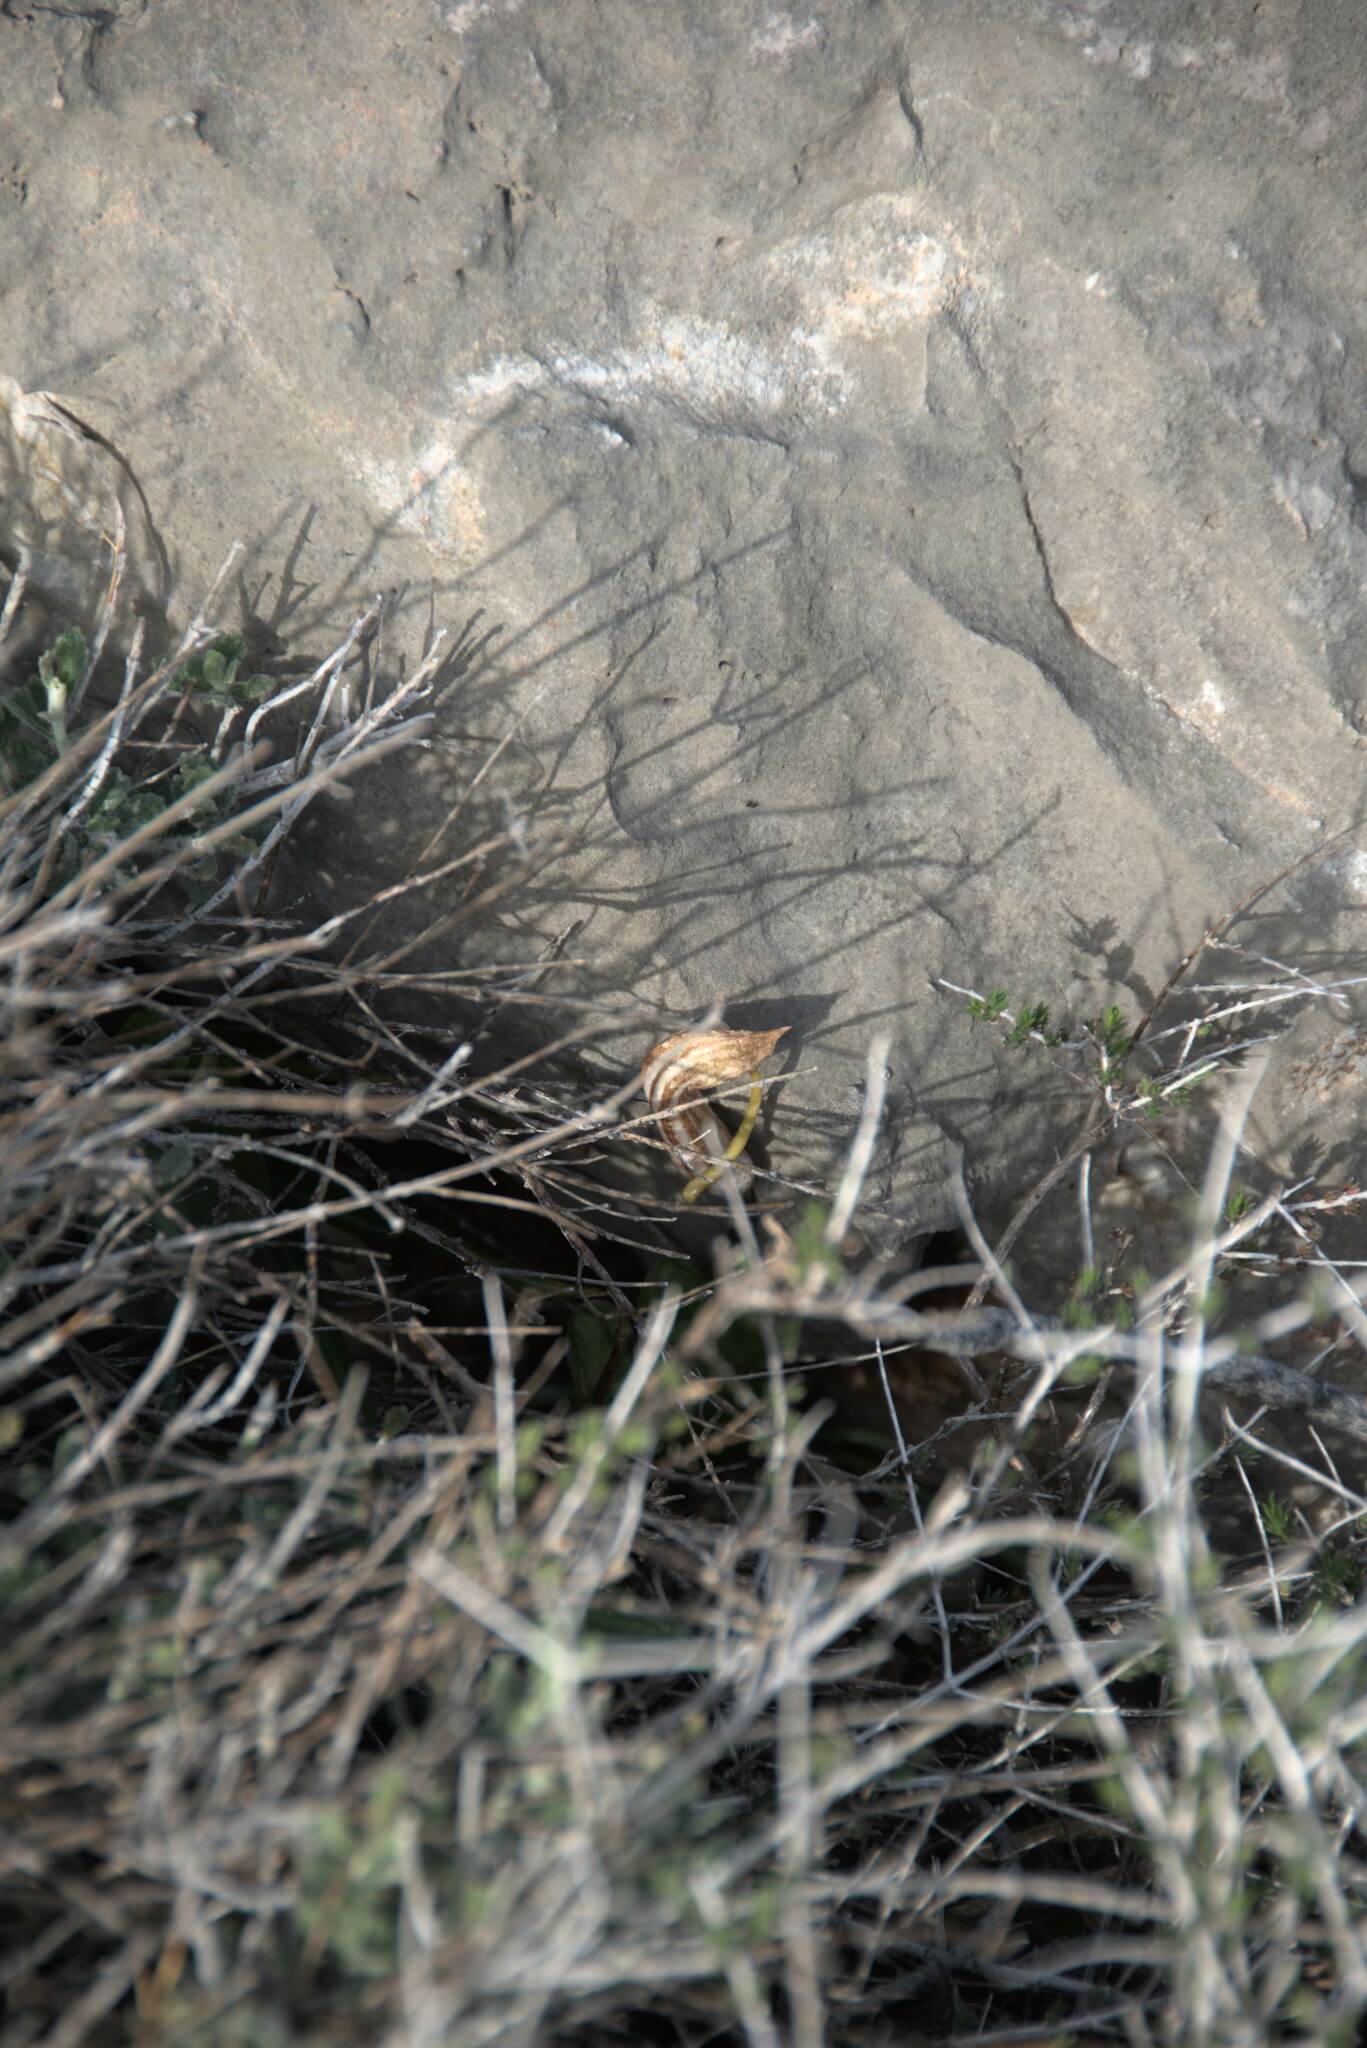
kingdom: Plantae
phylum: Tracheophyta
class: Liliopsida
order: Alismatales
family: Araceae
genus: Arisarum
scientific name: Arisarum vulgare
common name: Common arisarum
